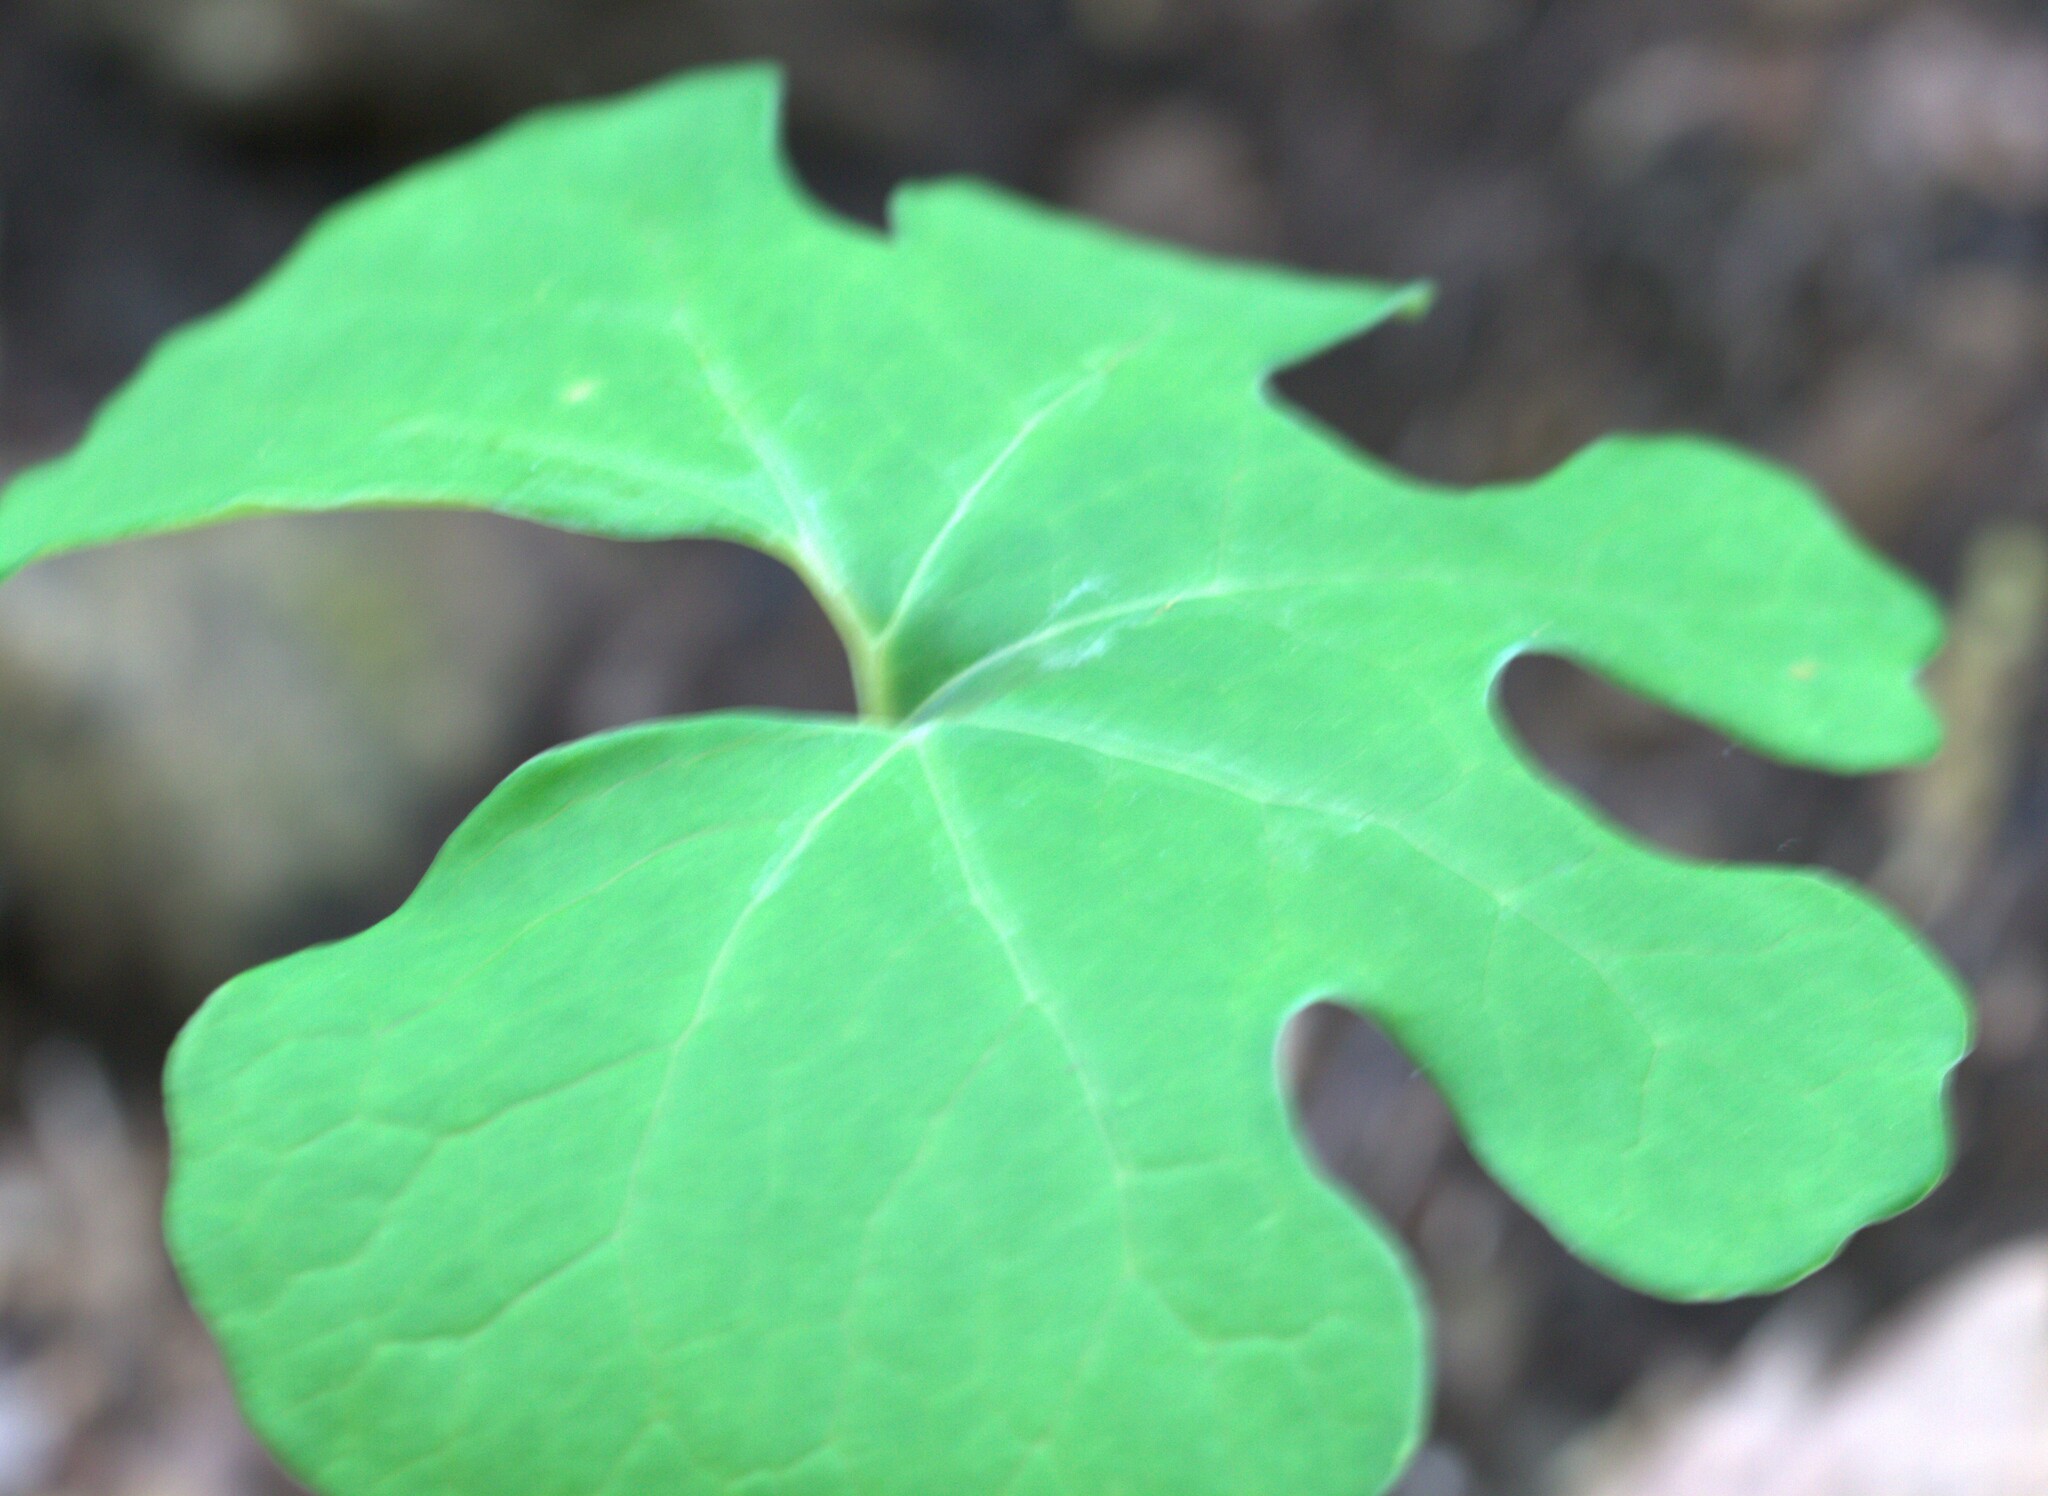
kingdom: Plantae
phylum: Tracheophyta
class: Magnoliopsida
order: Ranunculales
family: Papaveraceae
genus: Sanguinaria
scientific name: Sanguinaria canadensis
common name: Bloodroot
